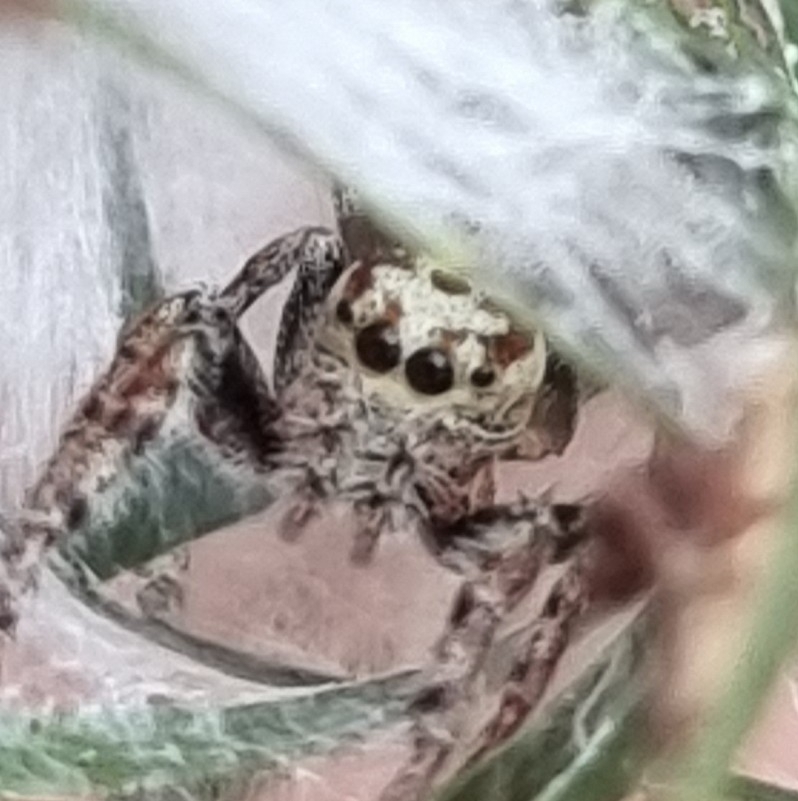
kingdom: Animalia
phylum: Arthropoda
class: Arachnida
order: Araneae
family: Salticidae
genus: Opisthoncus
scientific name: Opisthoncus polyphemus
